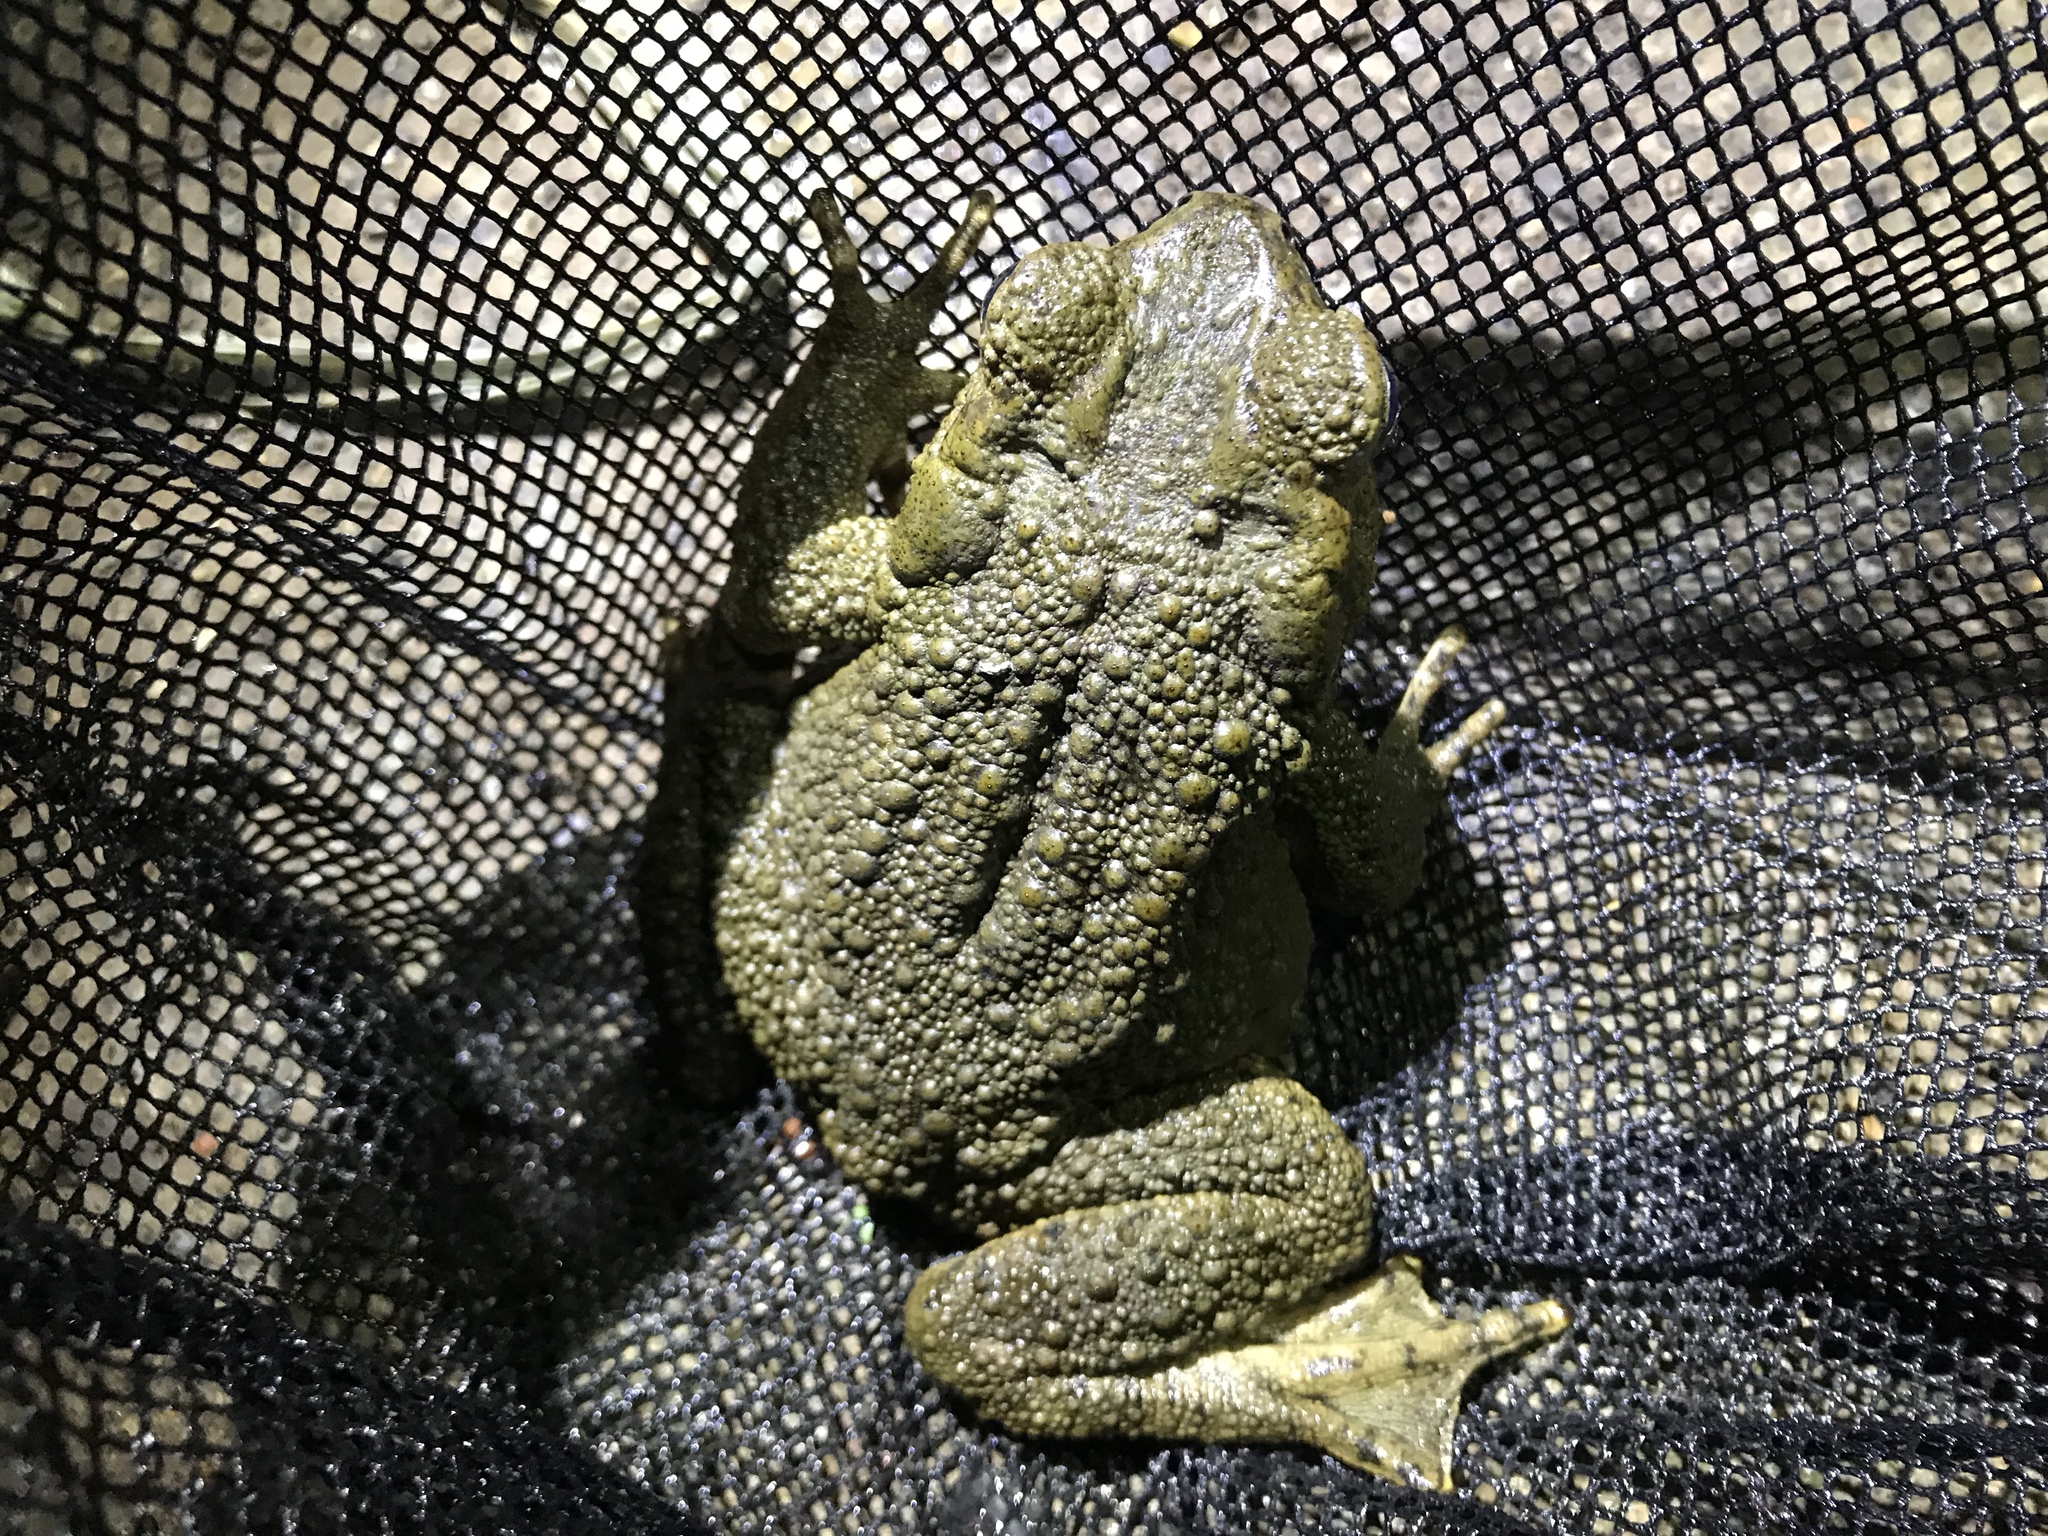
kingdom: Animalia
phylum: Chordata
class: Amphibia
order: Anura
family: Bufonidae
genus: Phrynoidis
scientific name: Phrynoidis asper
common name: Asian giant toad
